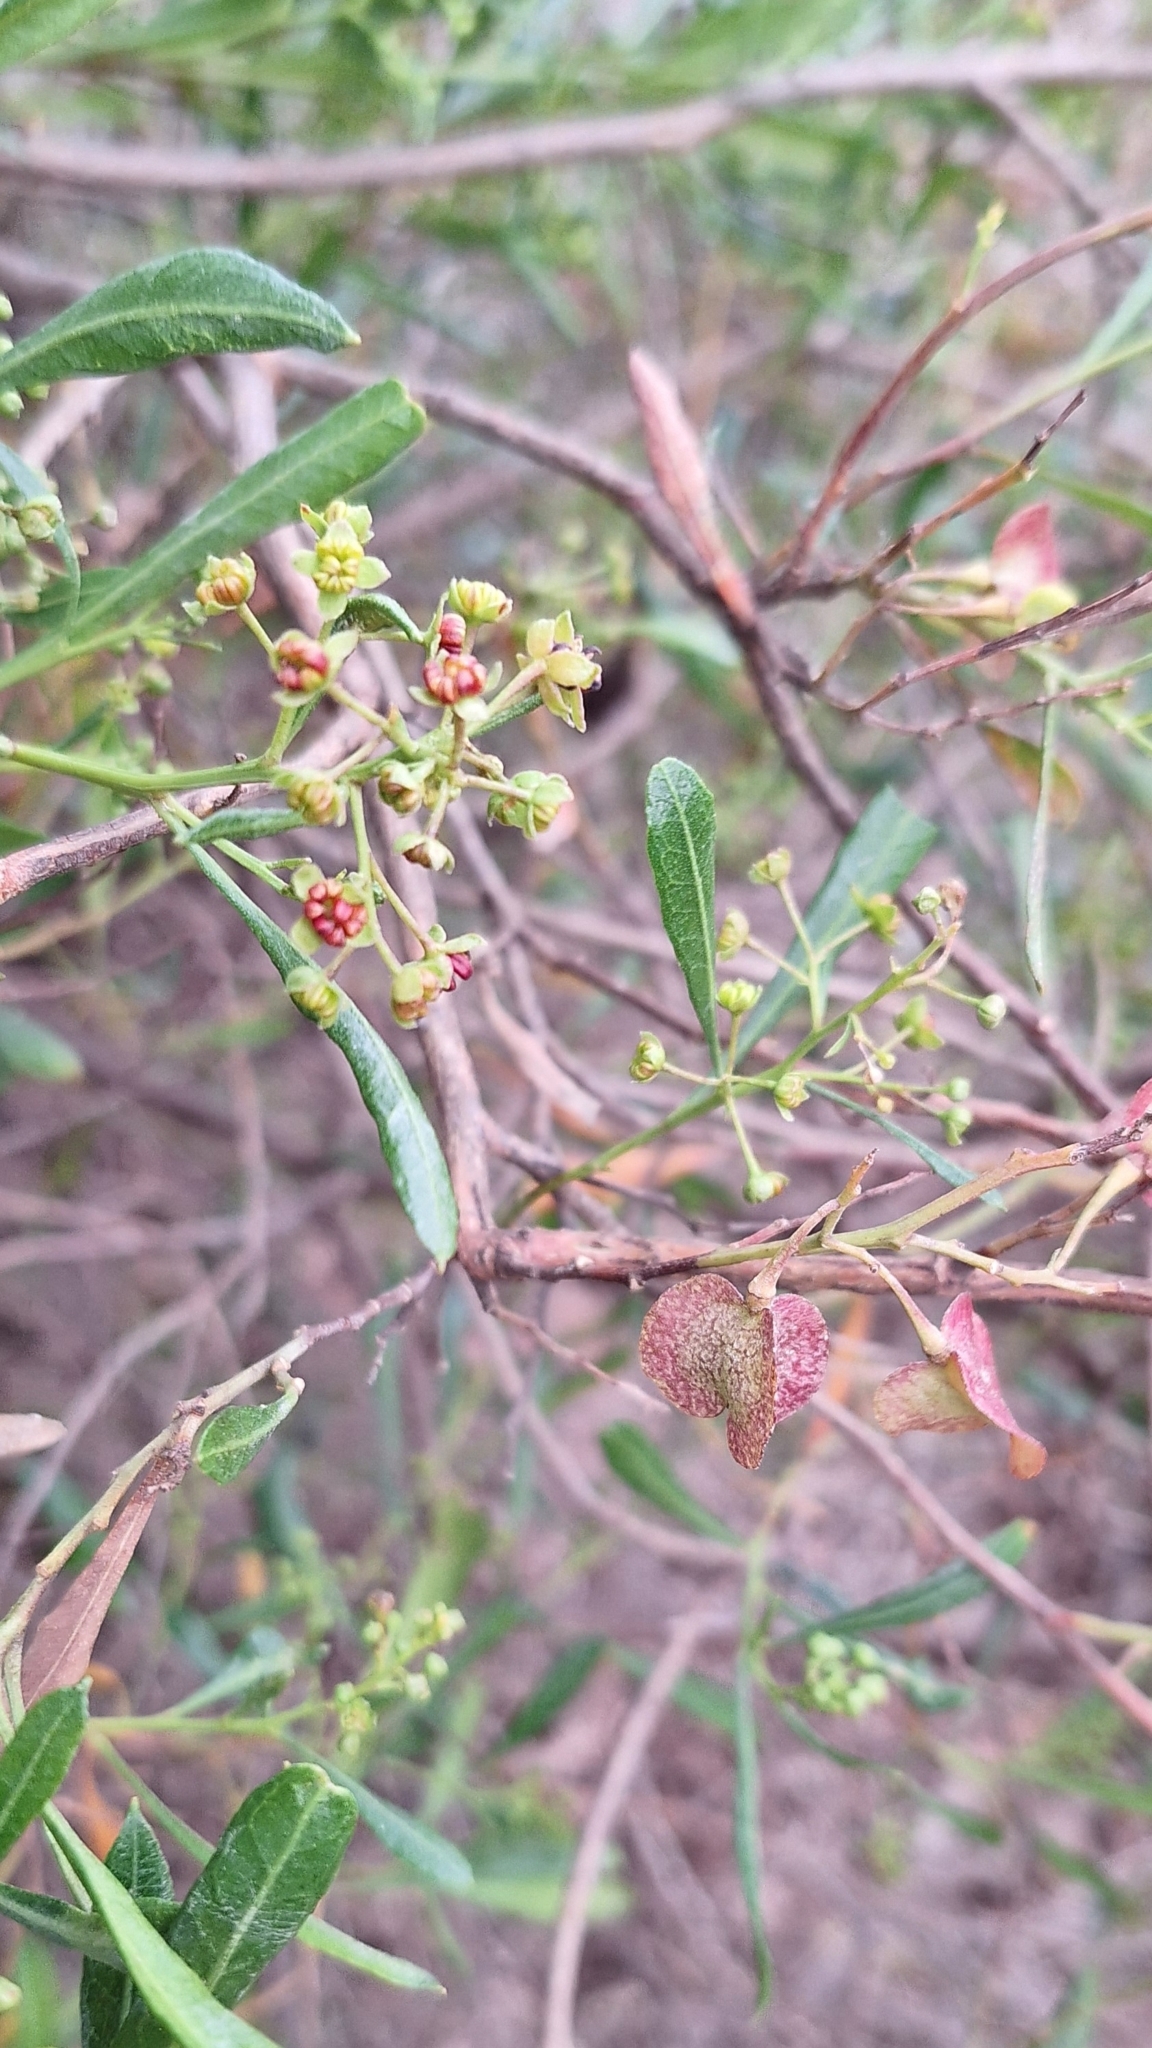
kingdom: Plantae
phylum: Tracheophyta
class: Magnoliopsida
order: Sapindales
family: Sapindaceae
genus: Dodonaea
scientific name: Dodonaea viscosa
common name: Hopbush
